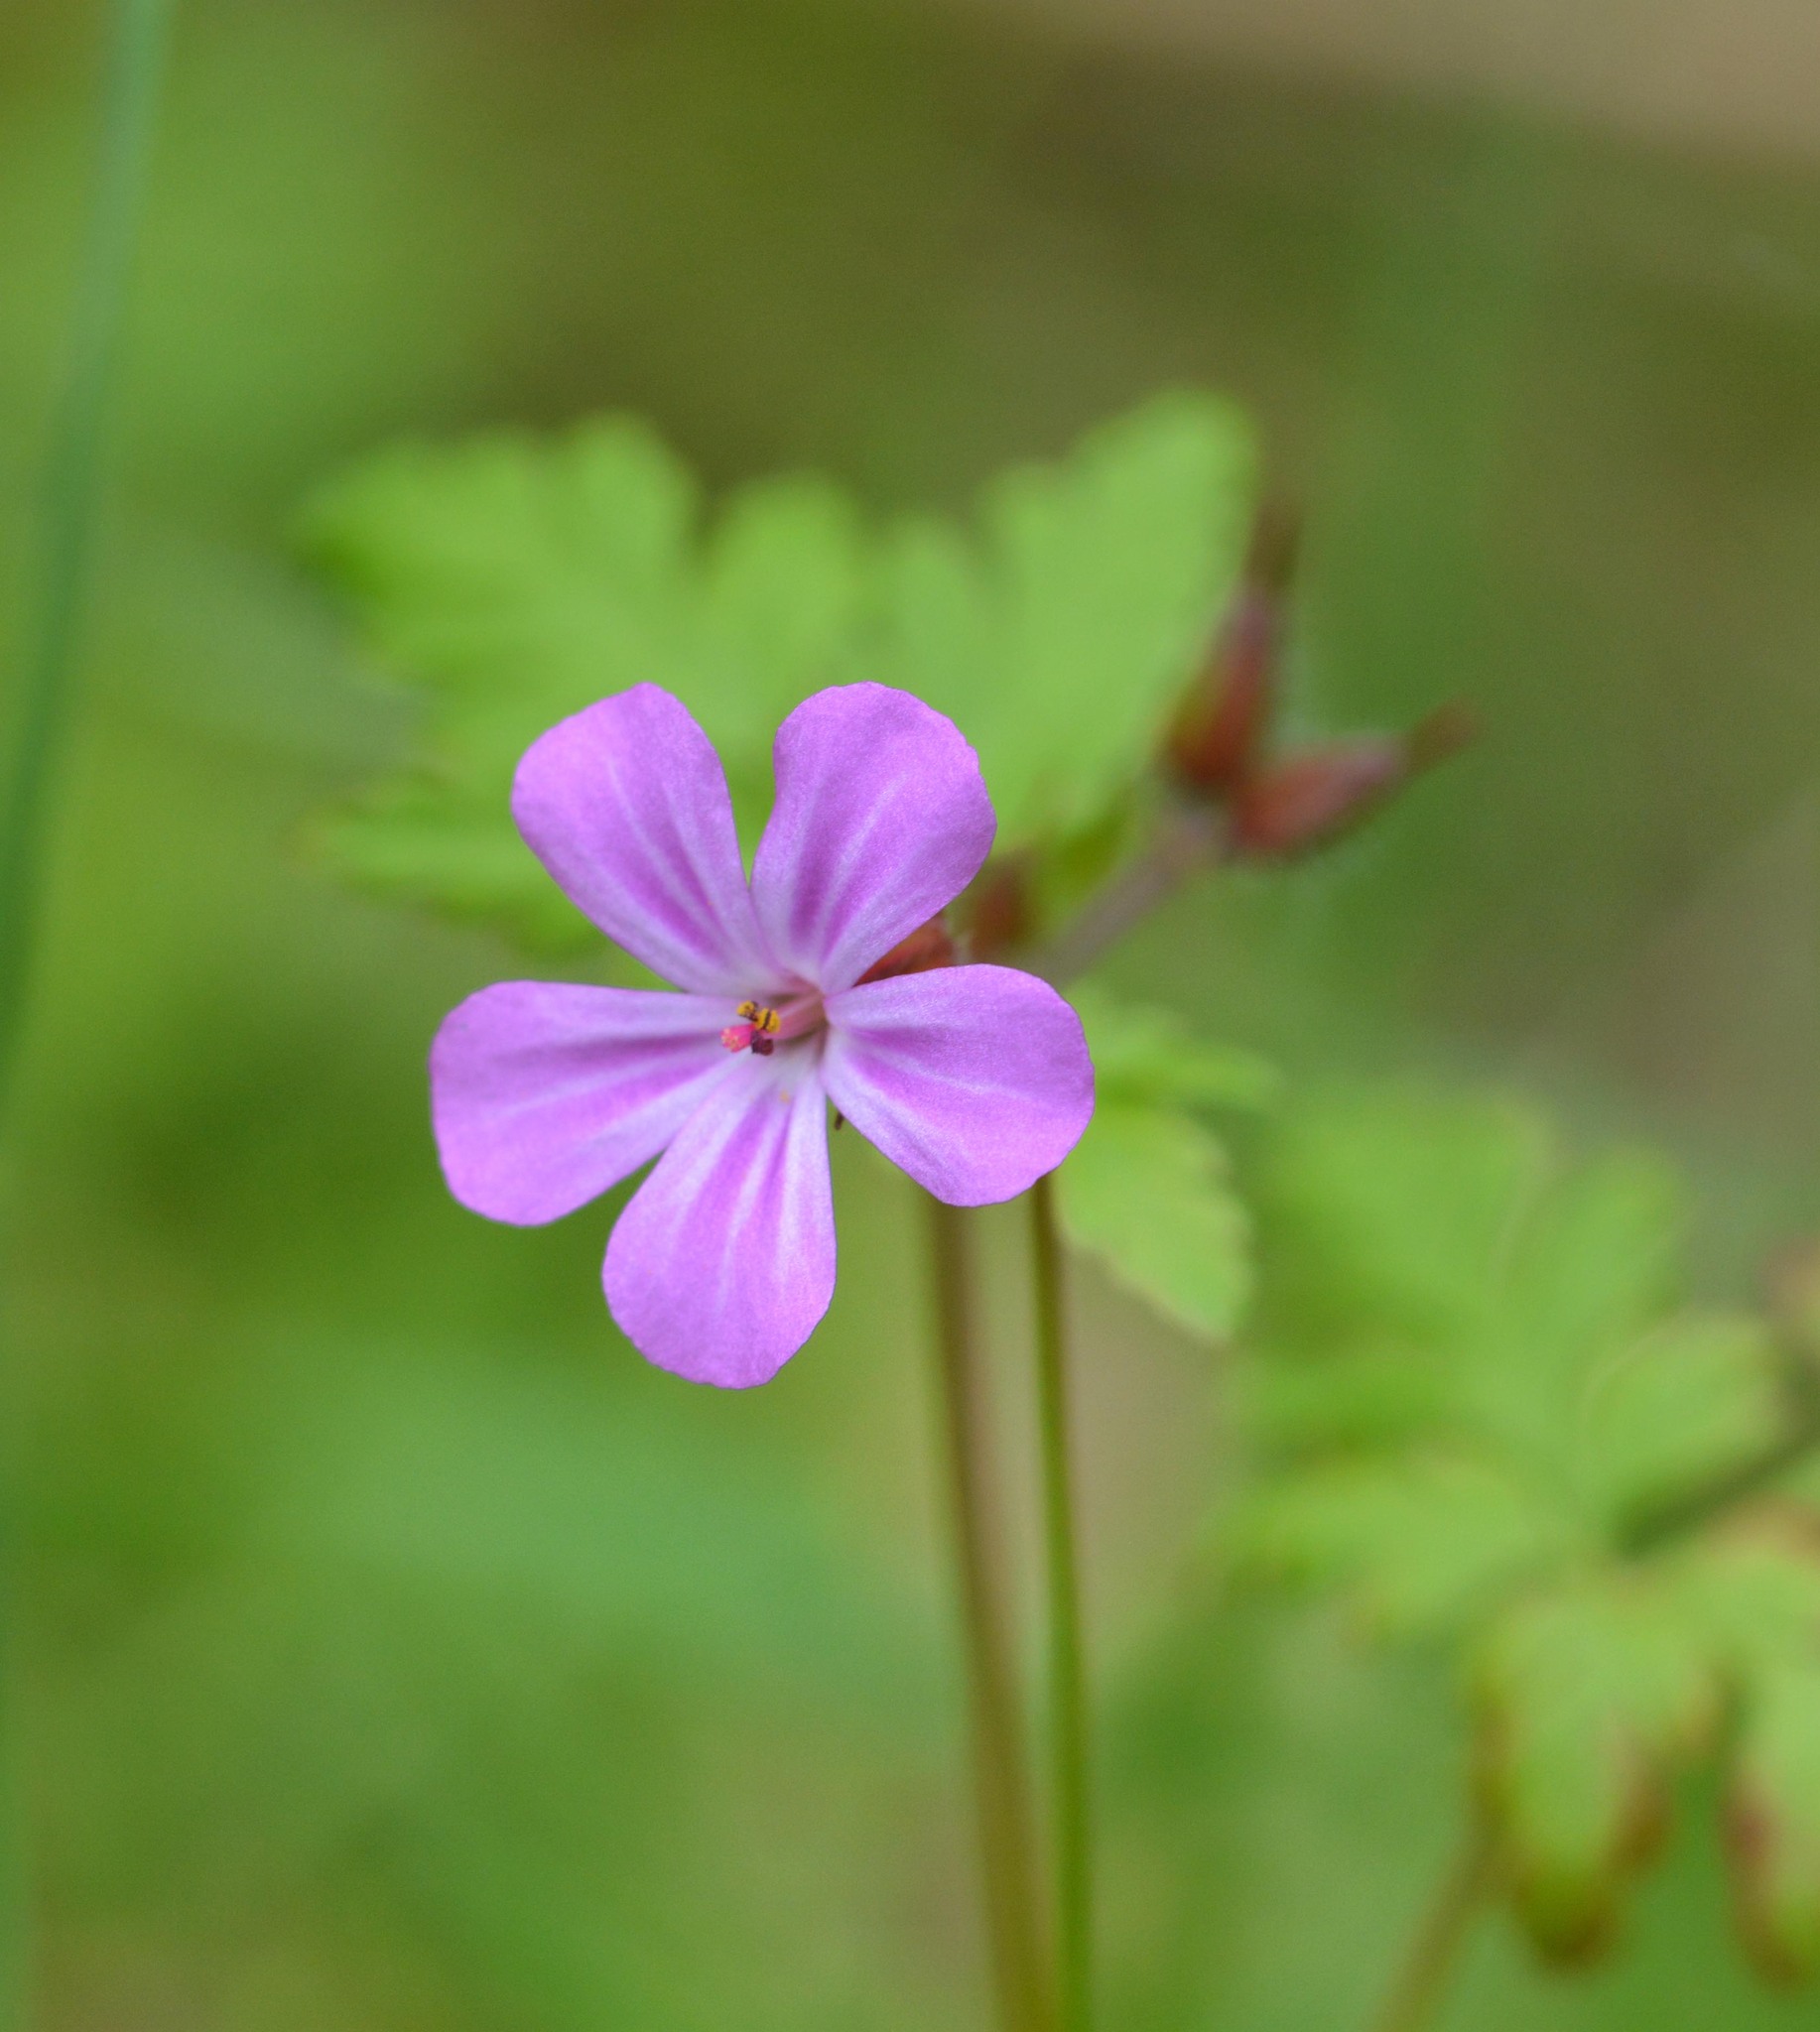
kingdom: Plantae
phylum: Tracheophyta
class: Magnoliopsida
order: Geraniales
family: Geraniaceae
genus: Geranium
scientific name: Geranium robertianum
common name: Herb-robert
